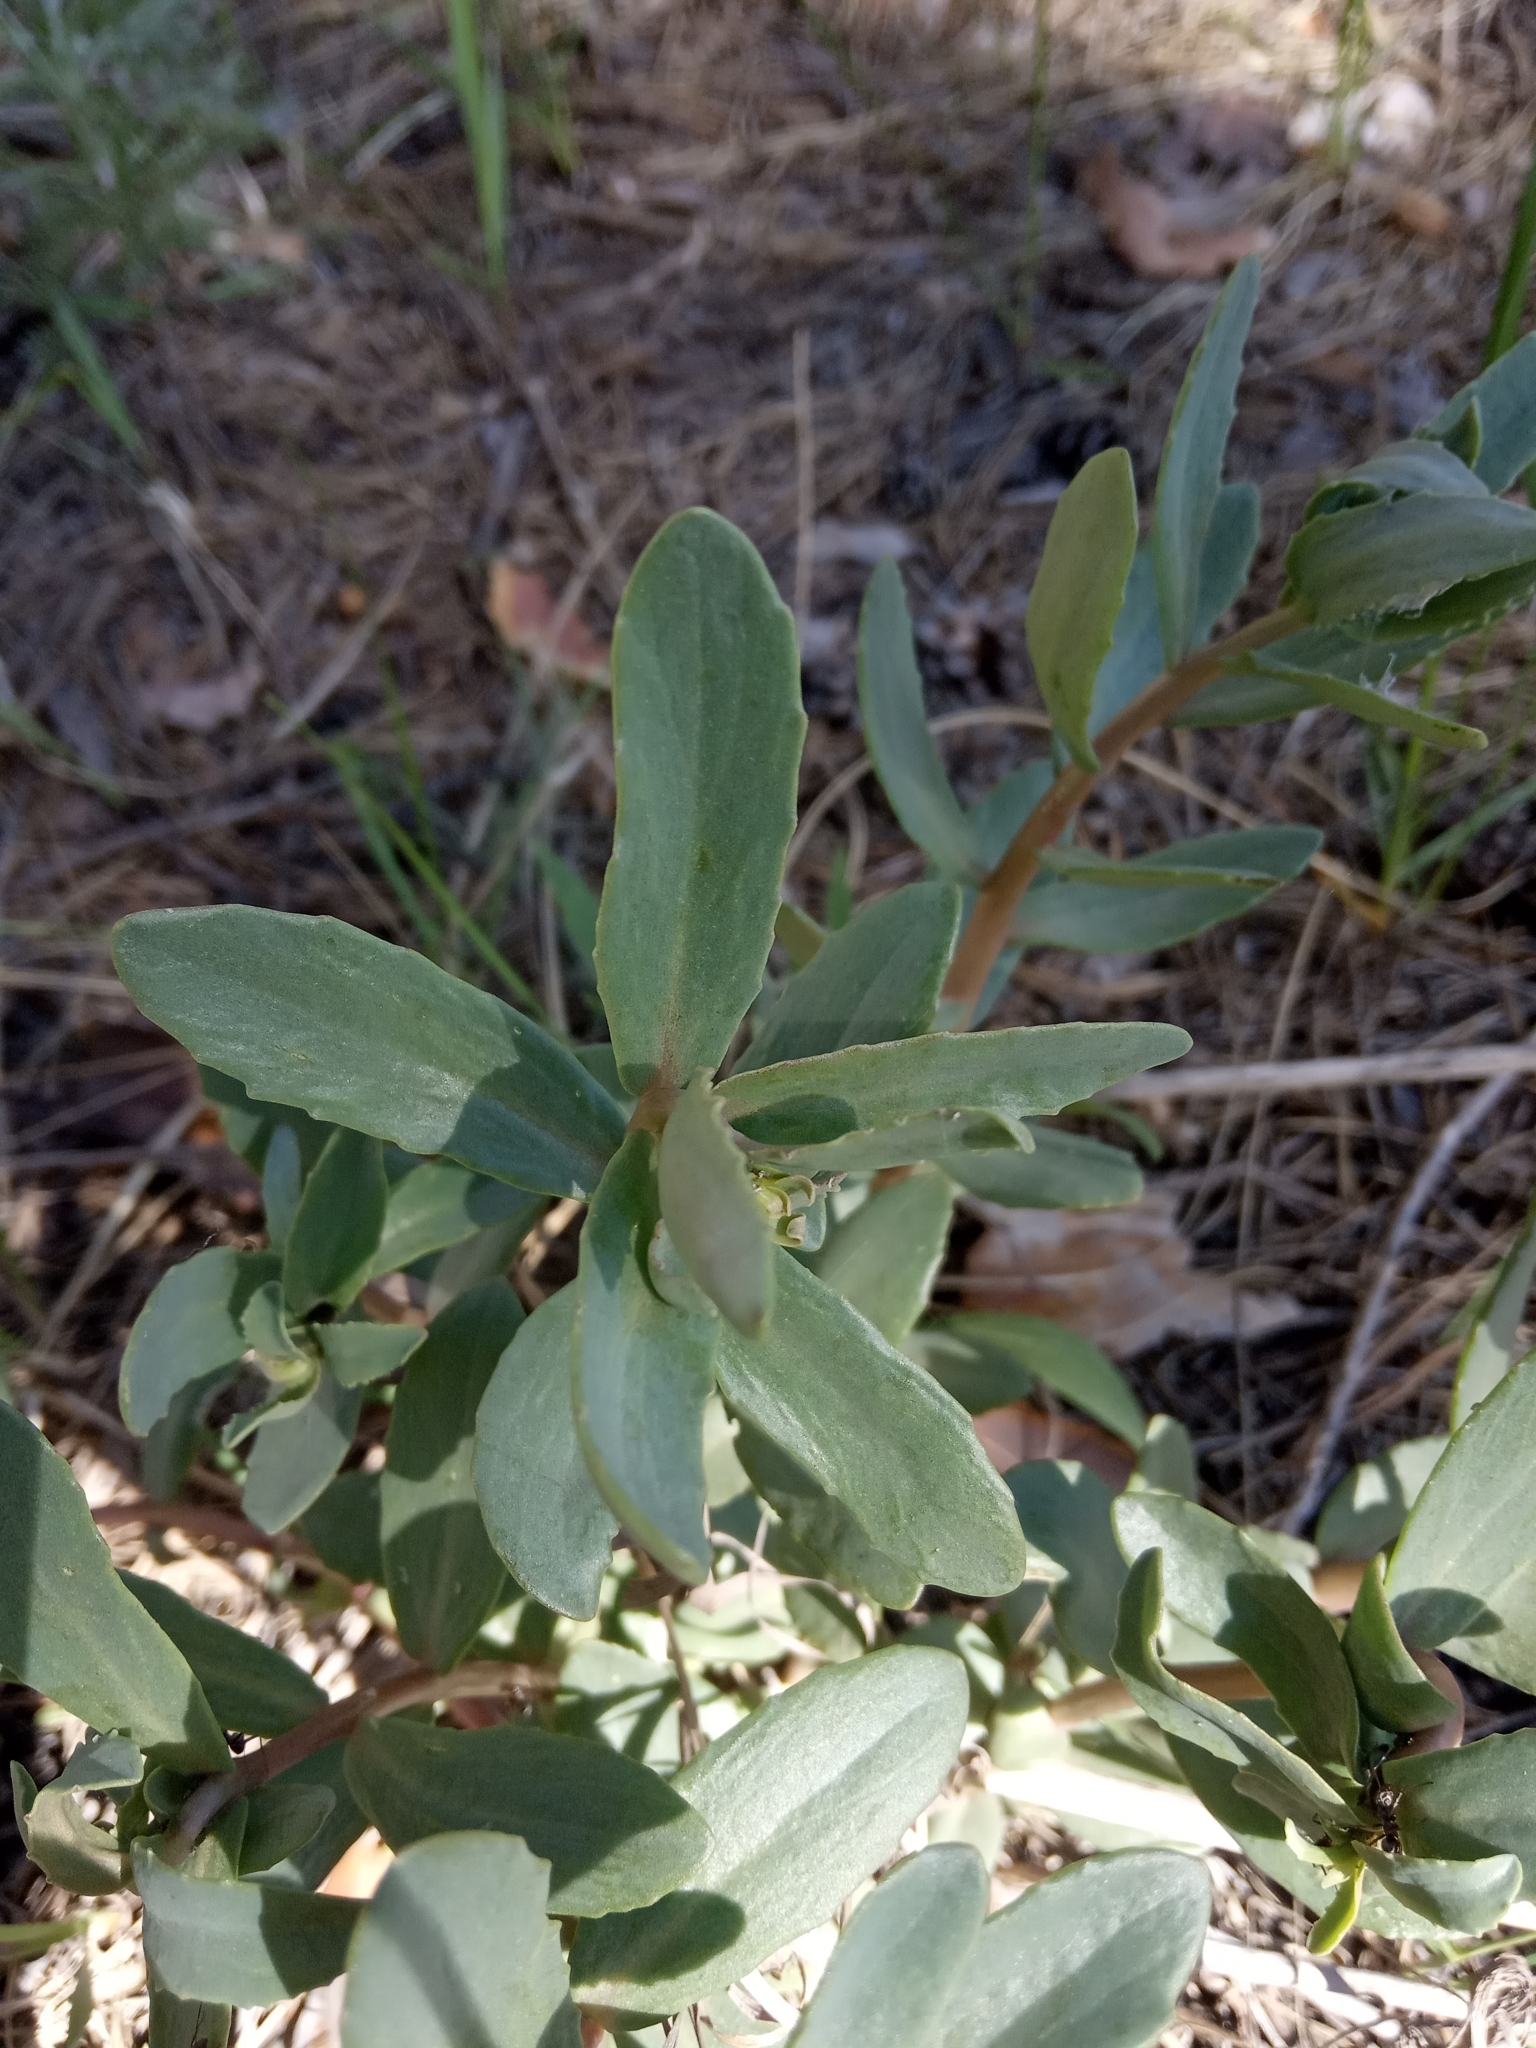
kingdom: Plantae
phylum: Tracheophyta
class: Magnoliopsida
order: Saxifragales
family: Crassulaceae
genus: Hylotelephium
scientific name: Hylotelephium maximum
